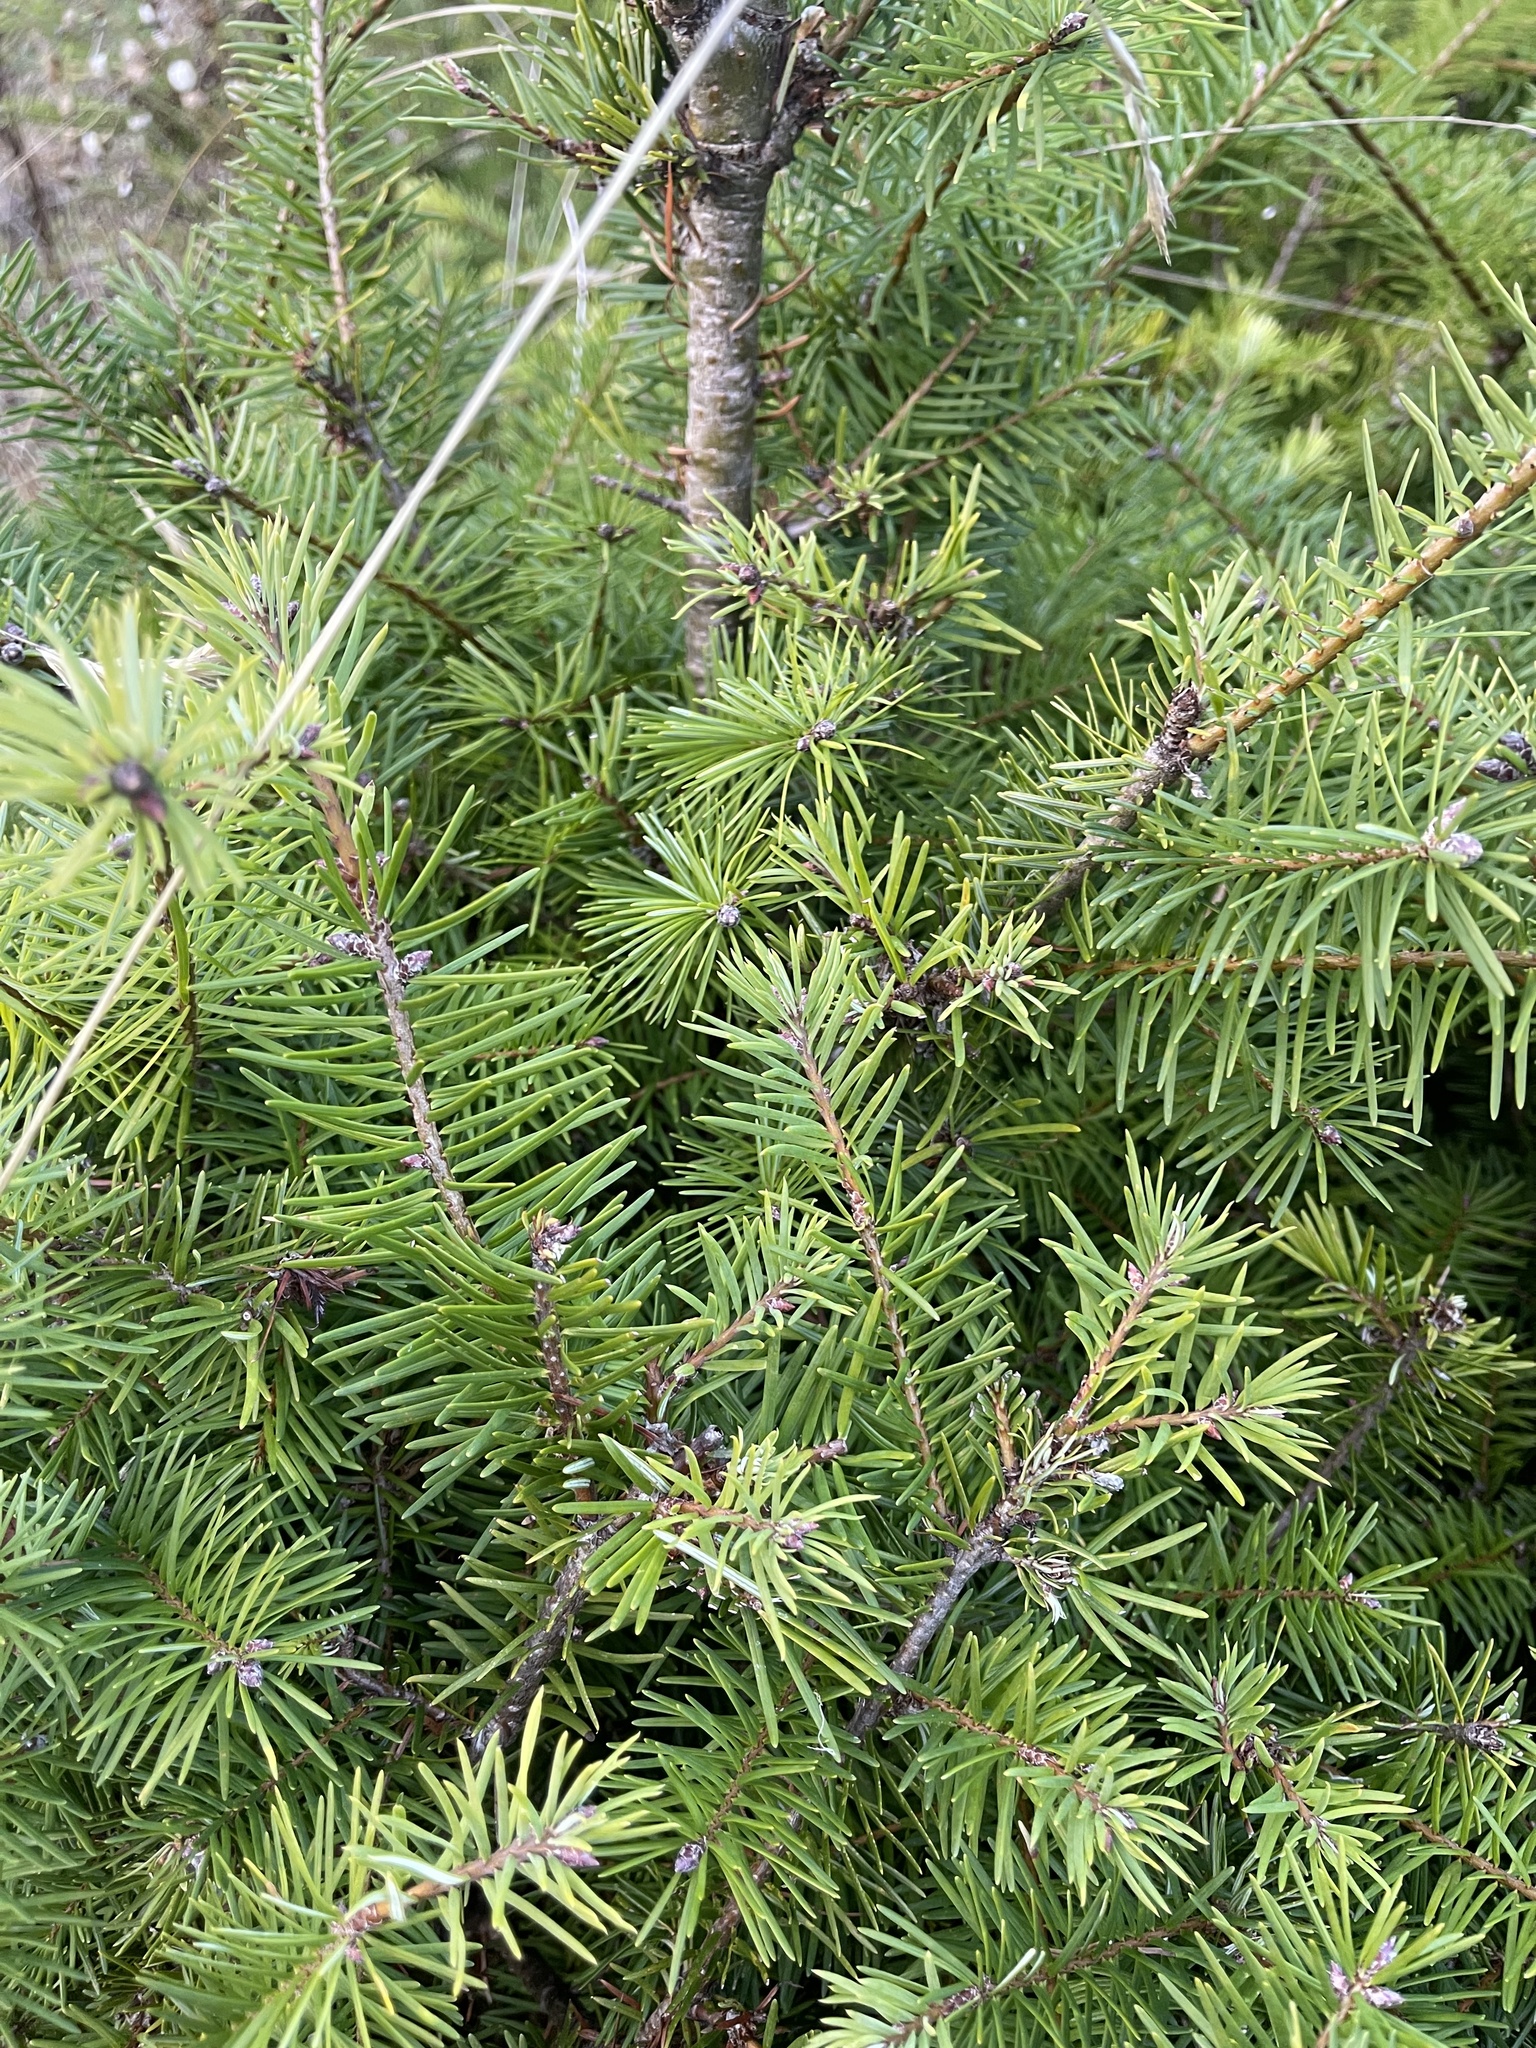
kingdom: Plantae
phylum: Tracheophyta
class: Pinopsida
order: Pinales
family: Pinaceae
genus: Pseudotsuga
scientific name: Pseudotsuga menziesii
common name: Douglas fir
